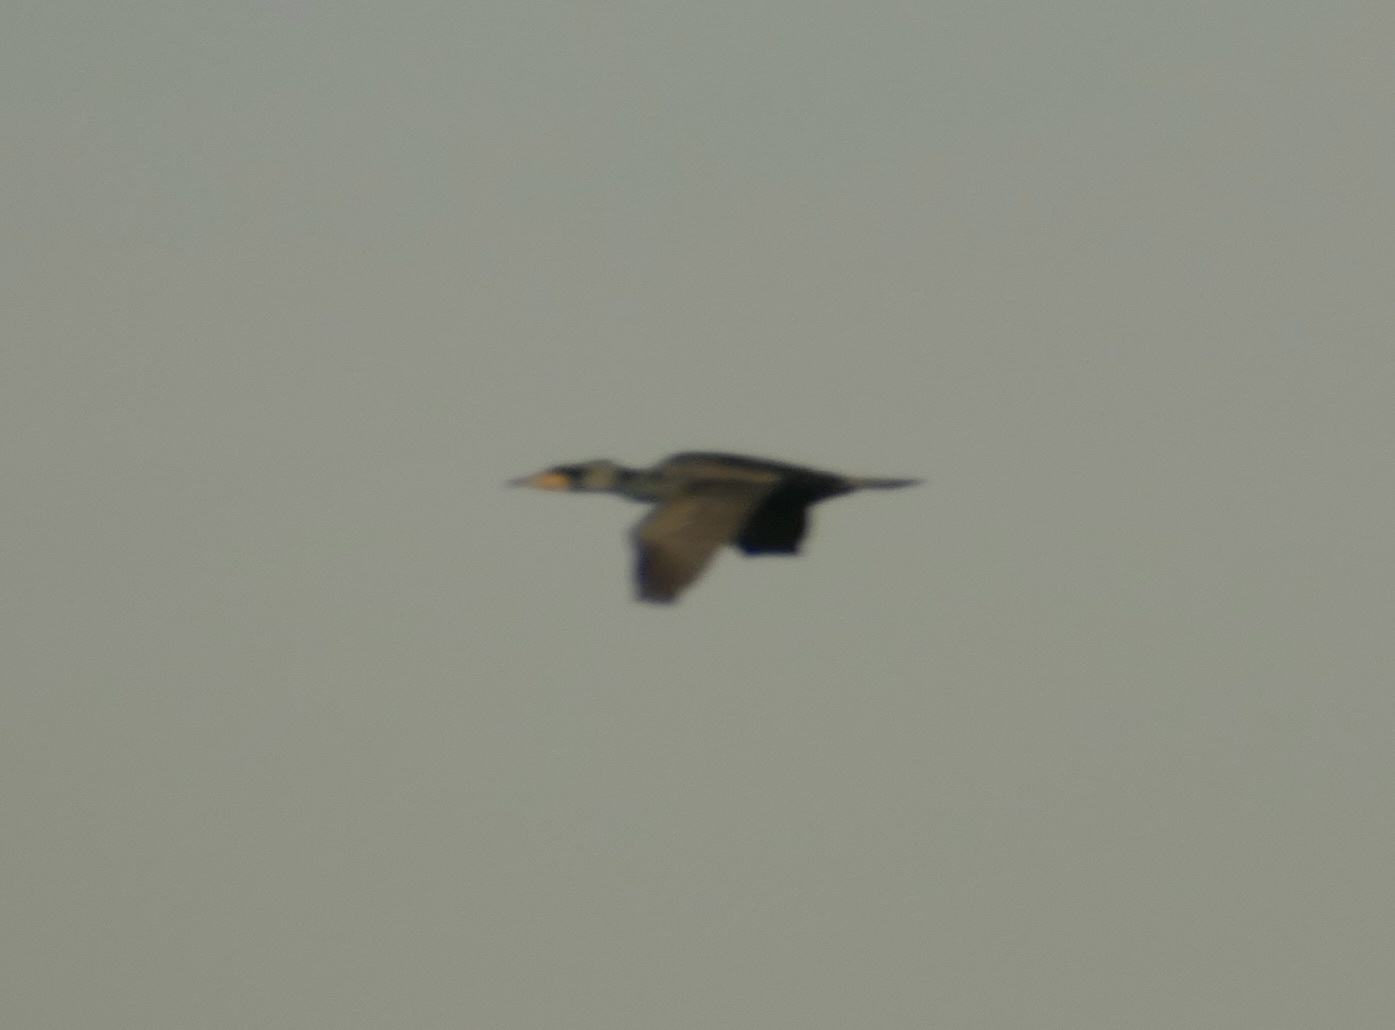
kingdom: Animalia
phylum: Chordata
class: Aves
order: Suliformes
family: Phalacrocoracidae
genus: Phalacrocorax
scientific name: Phalacrocorax carbo
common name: Great cormorant
